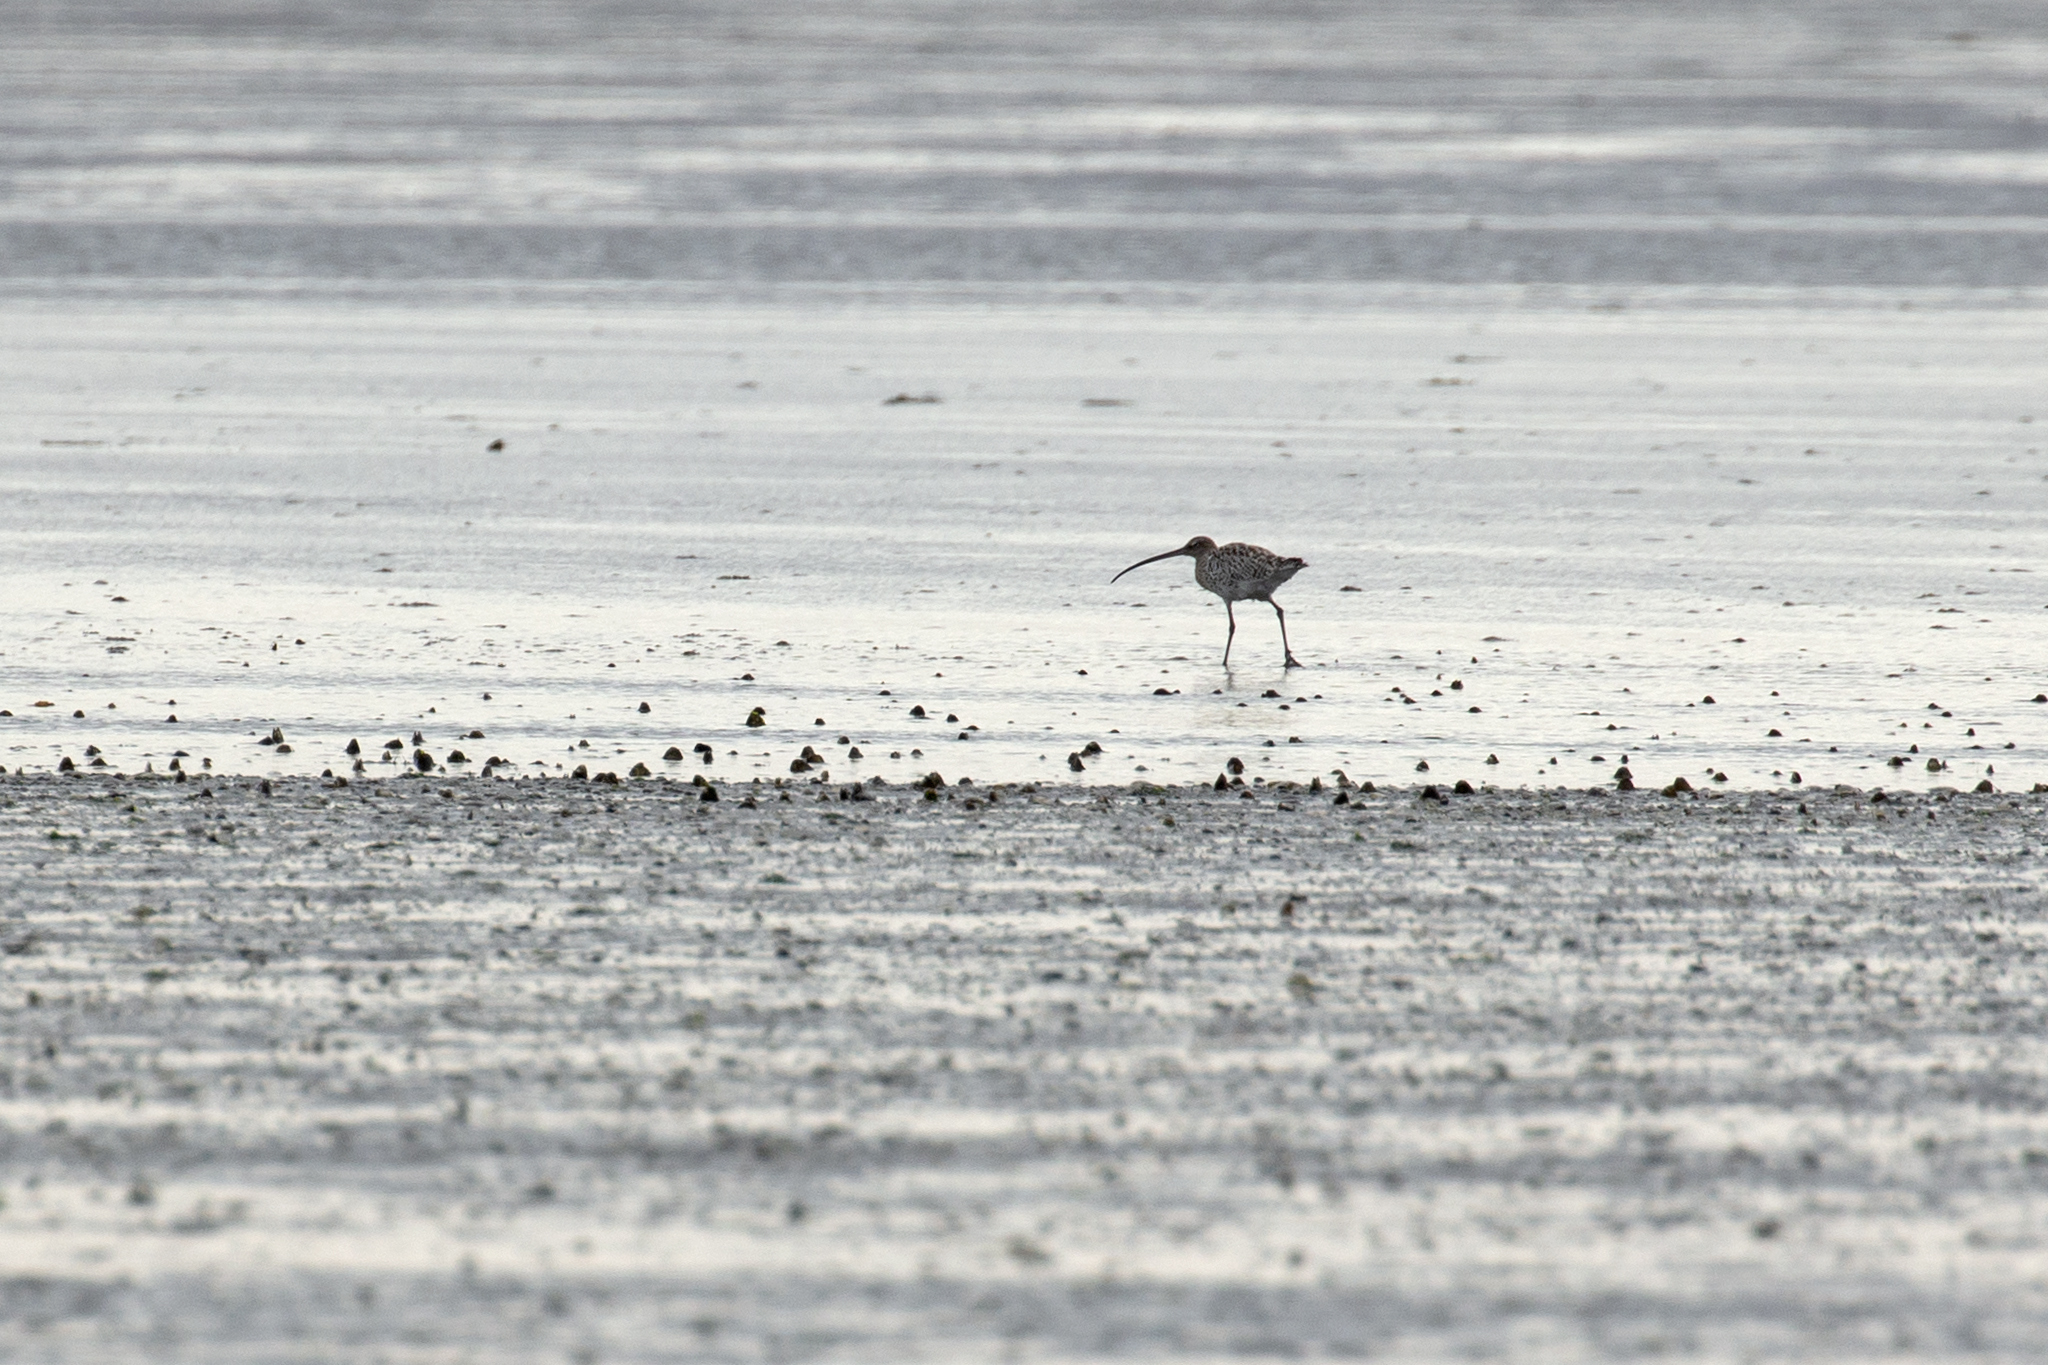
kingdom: Animalia
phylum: Chordata
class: Aves
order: Charadriiformes
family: Scolopacidae
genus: Numenius
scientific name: Numenius arquata
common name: Eurasian curlew
